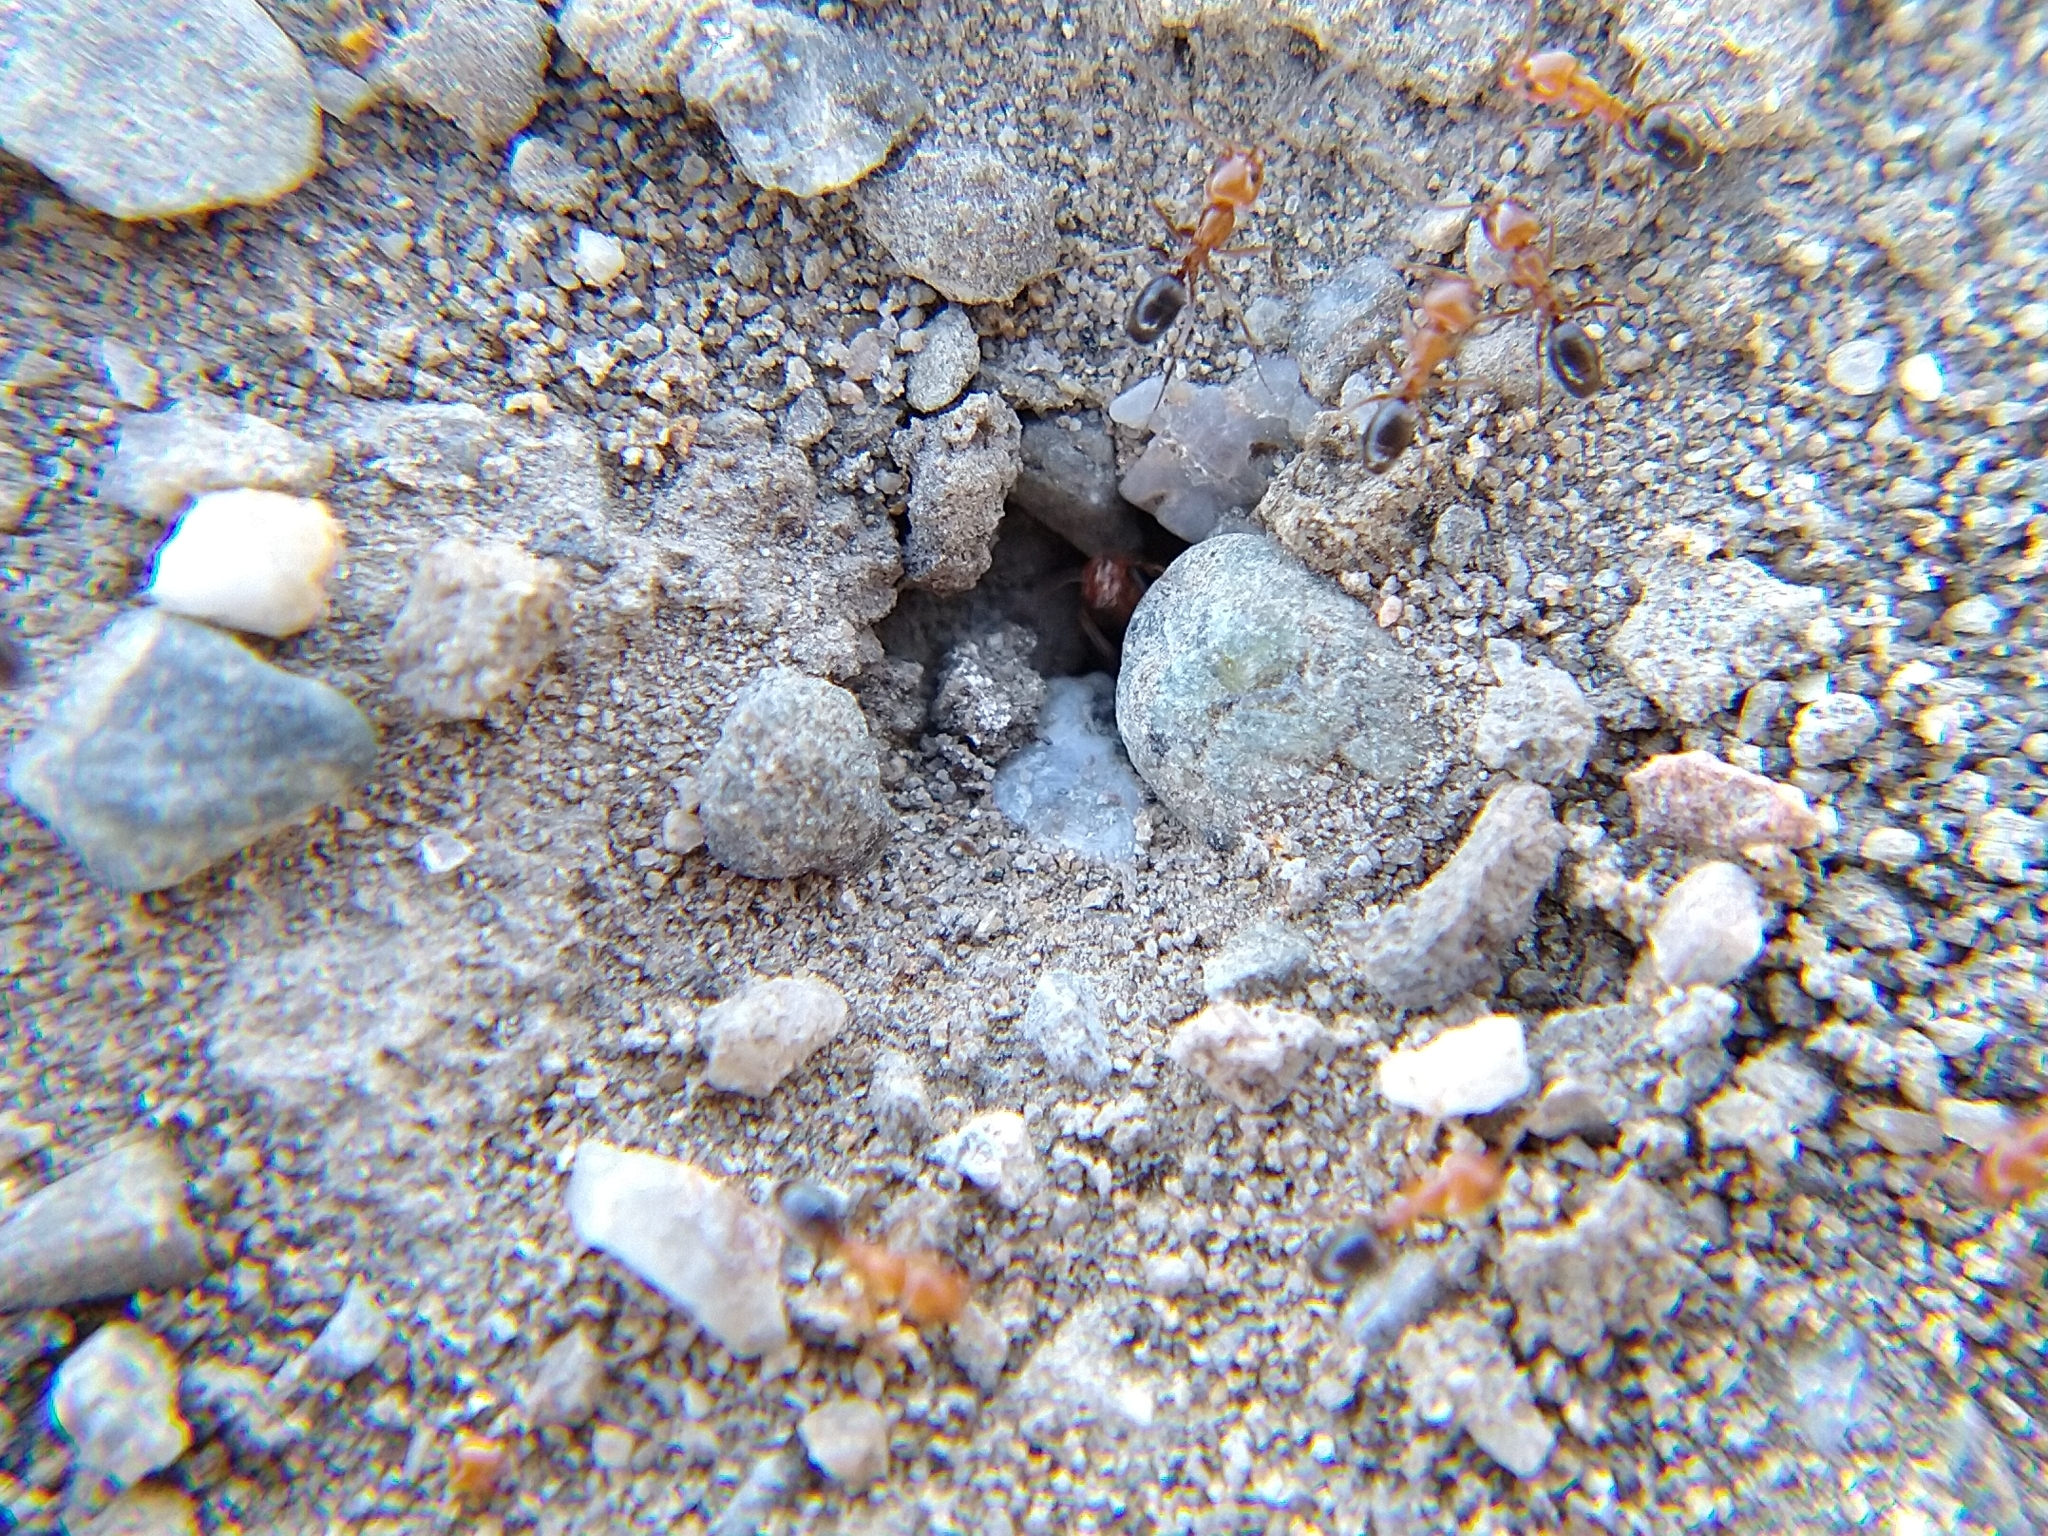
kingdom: Animalia
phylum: Arthropoda
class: Insecta
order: Hymenoptera
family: Formicidae
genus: Dorymyrmex
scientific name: Dorymyrmex bicolor
